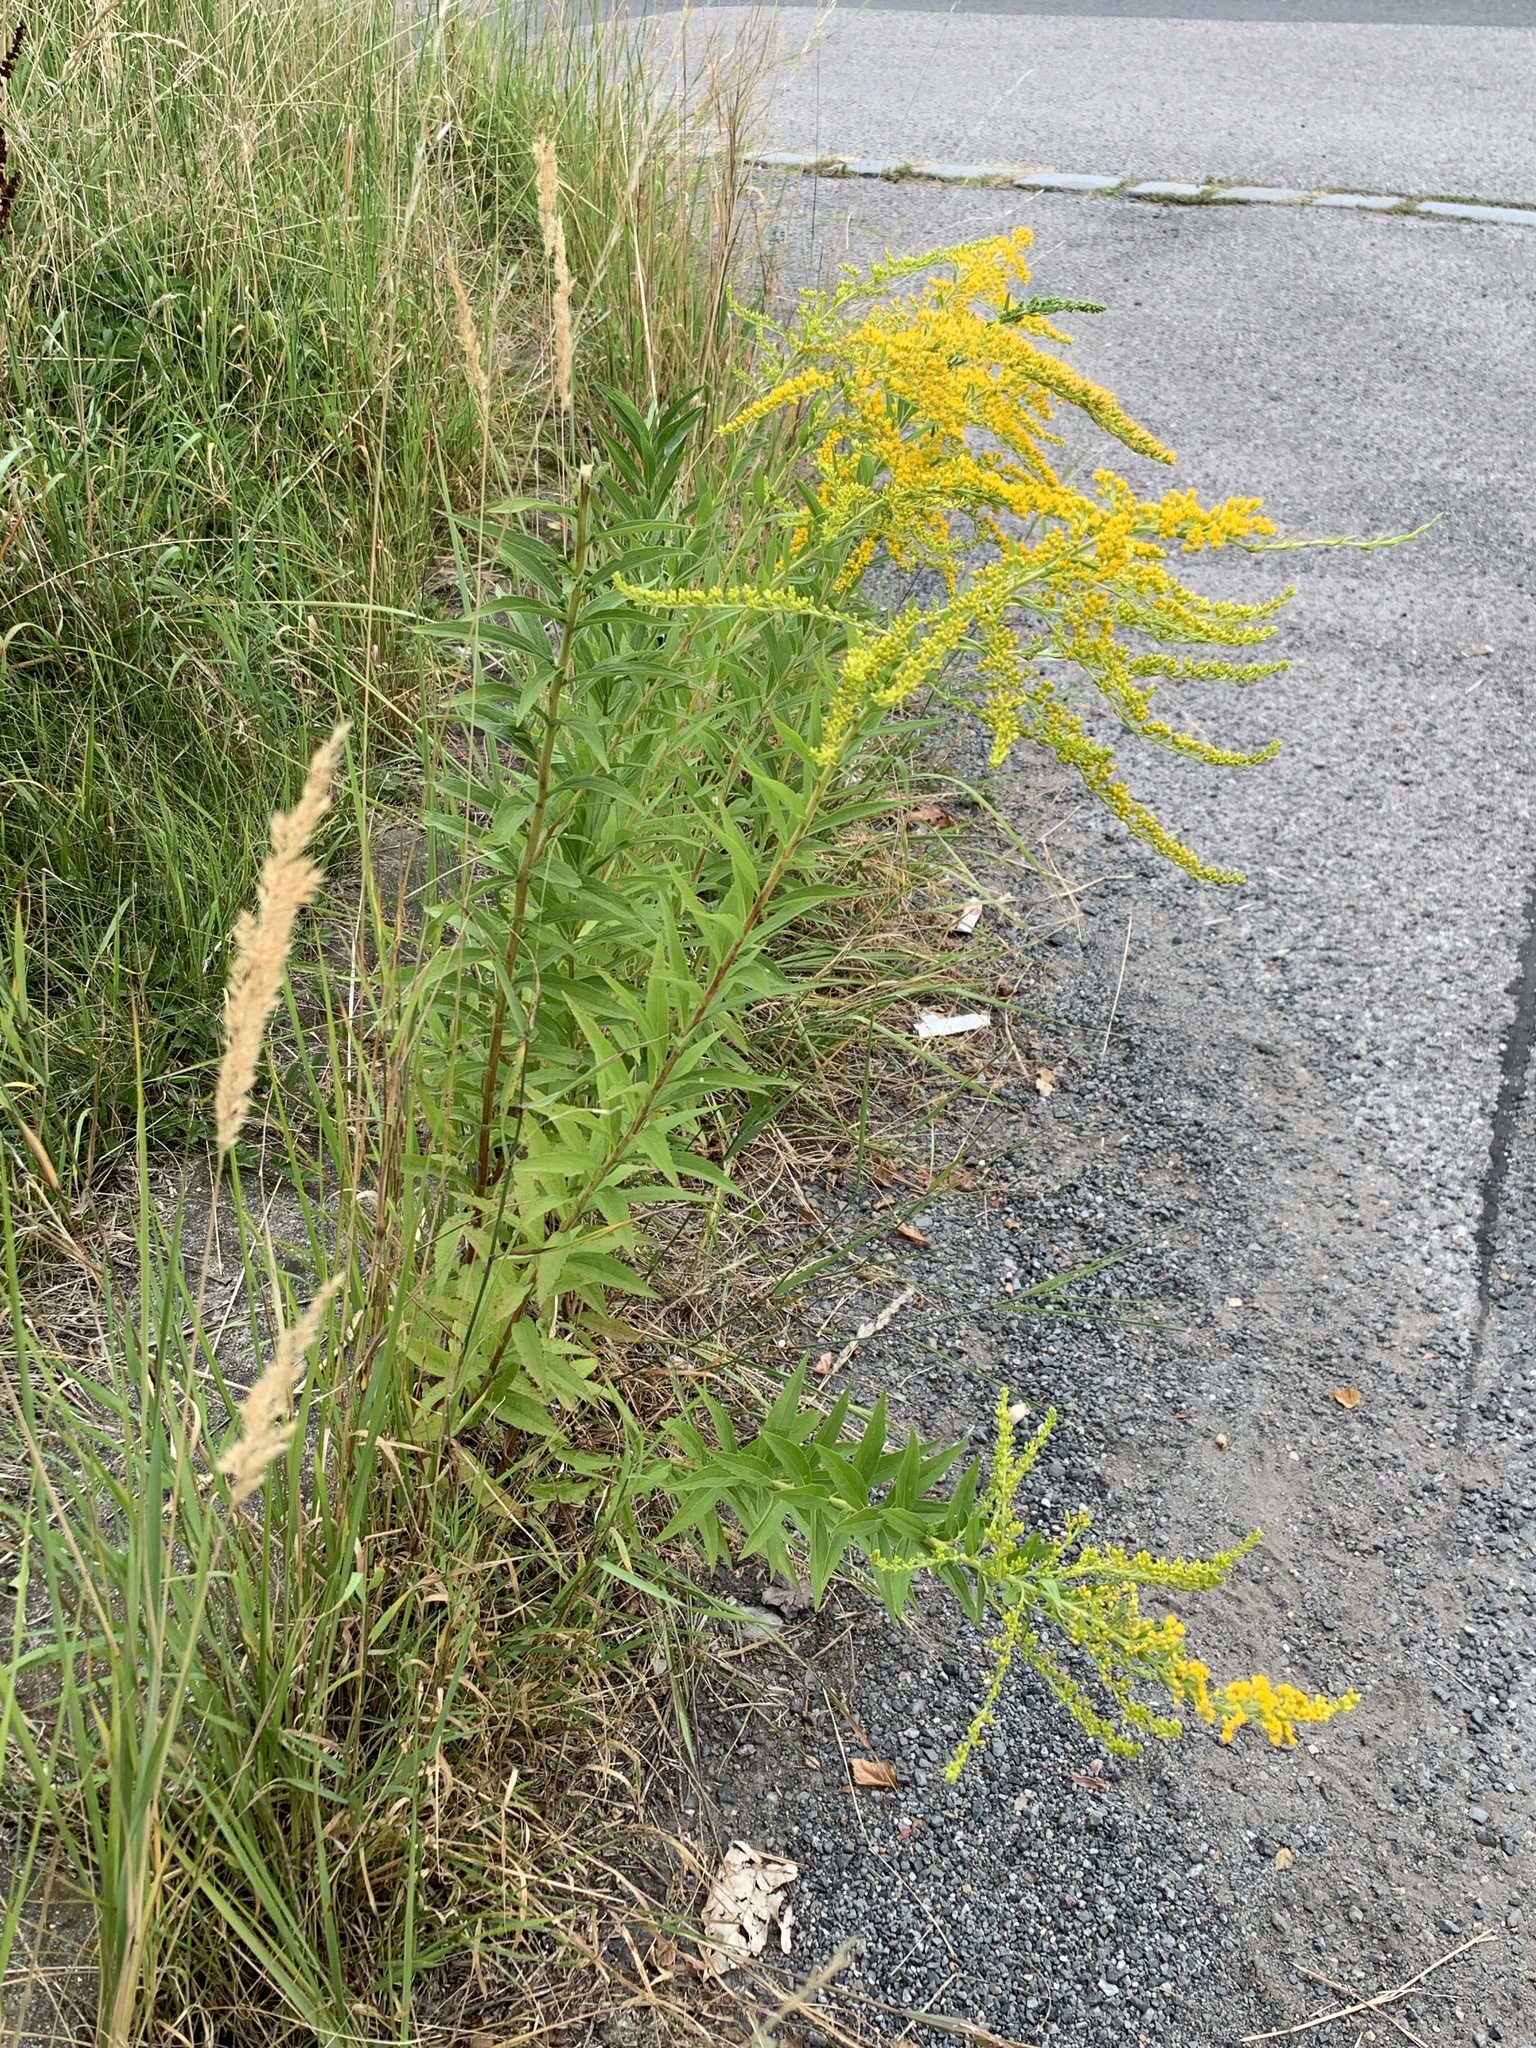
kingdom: Plantae
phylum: Tracheophyta
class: Magnoliopsida
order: Asterales
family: Asteraceae
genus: Solidago
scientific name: Solidago canadensis
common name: Canada goldenrod
